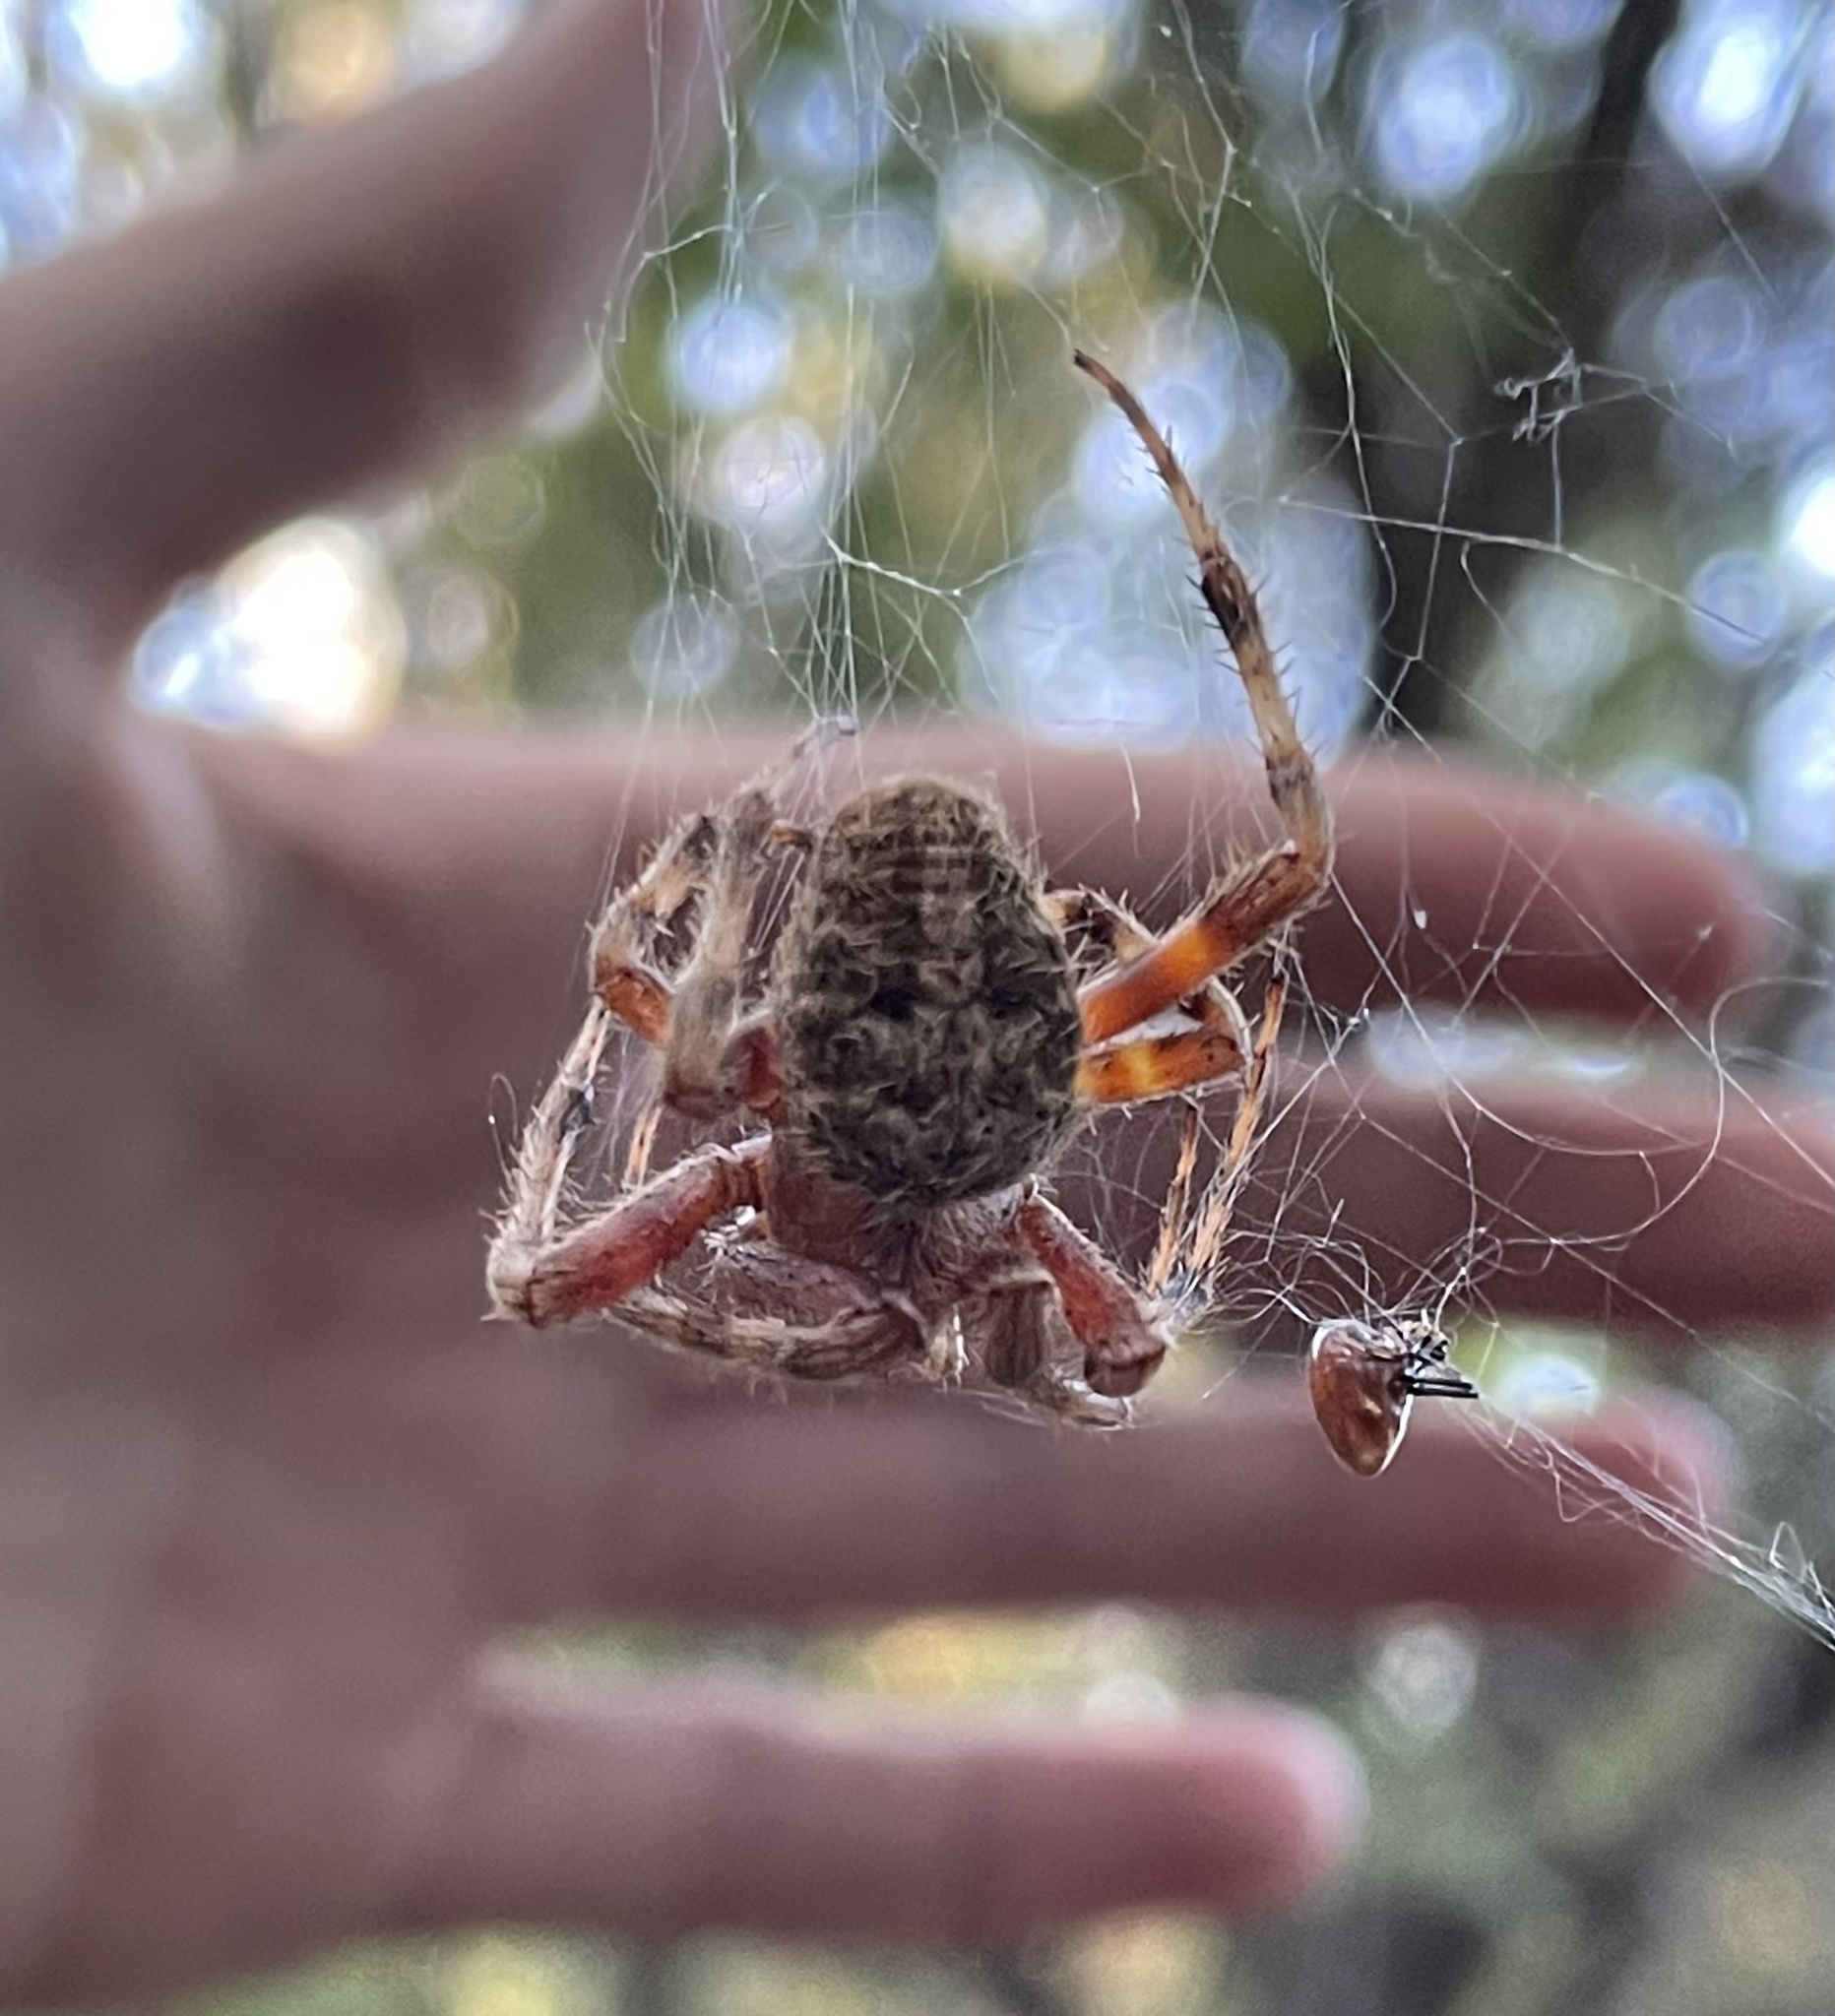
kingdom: Animalia
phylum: Arthropoda
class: Arachnida
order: Araneae
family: Araneidae
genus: Neoscona
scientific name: Neoscona crucifera
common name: Spotted orbweaver
